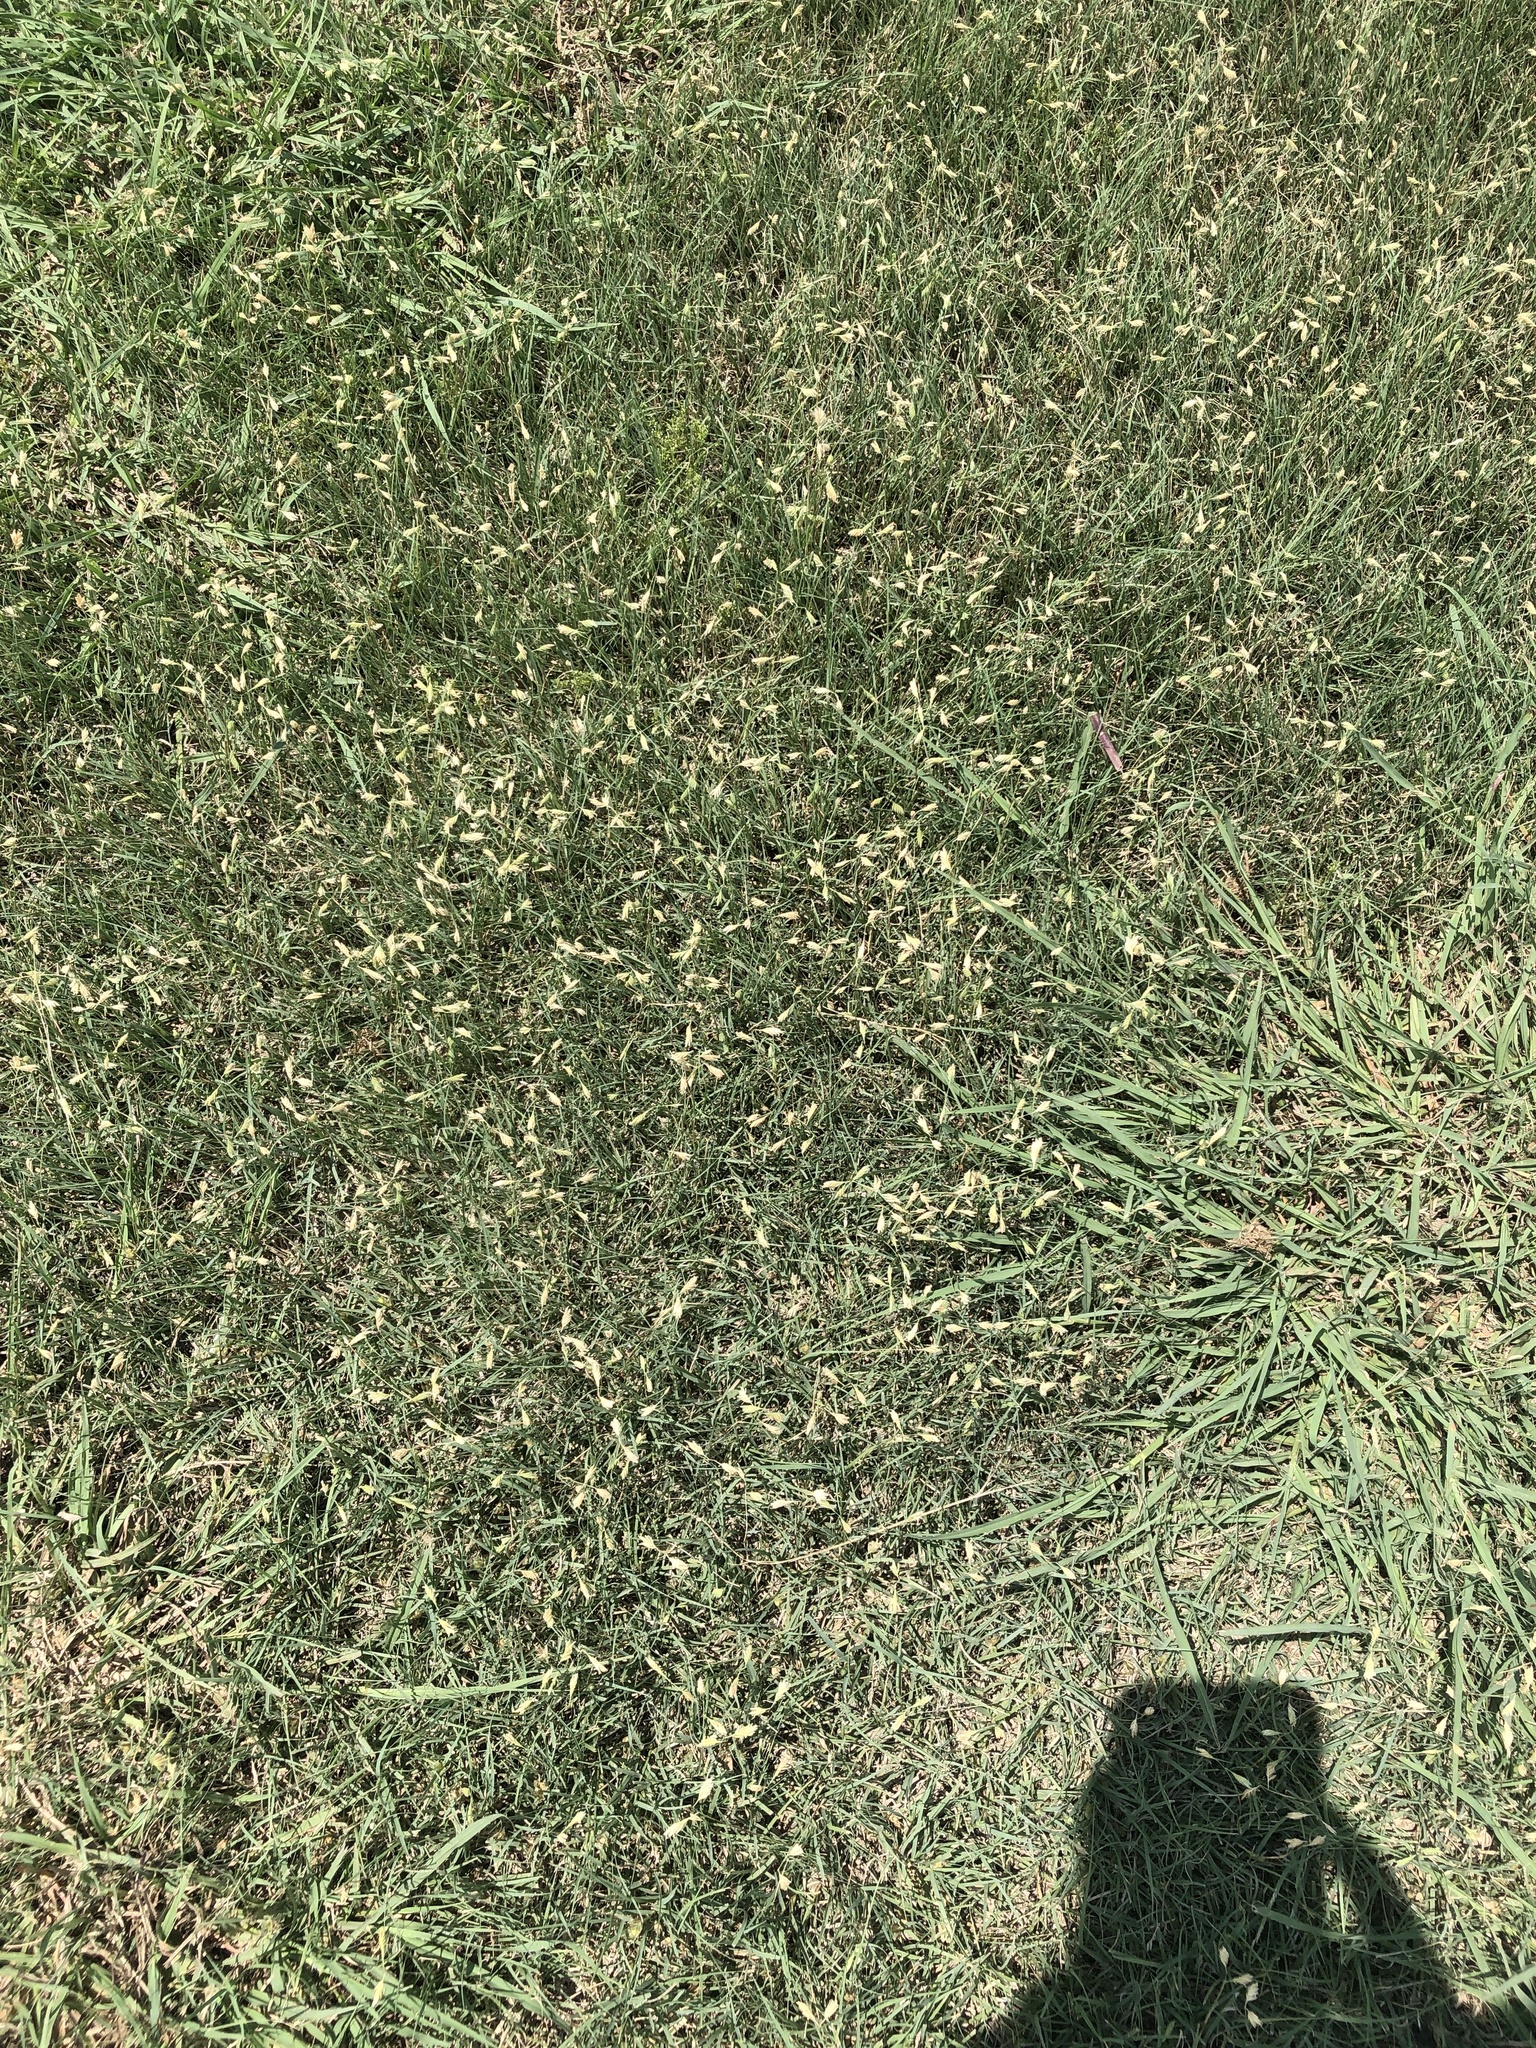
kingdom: Plantae
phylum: Tracheophyta
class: Liliopsida
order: Poales
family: Poaceae
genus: Bouteloua
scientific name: Bouteloua dactyloides
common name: Buffalo grass
